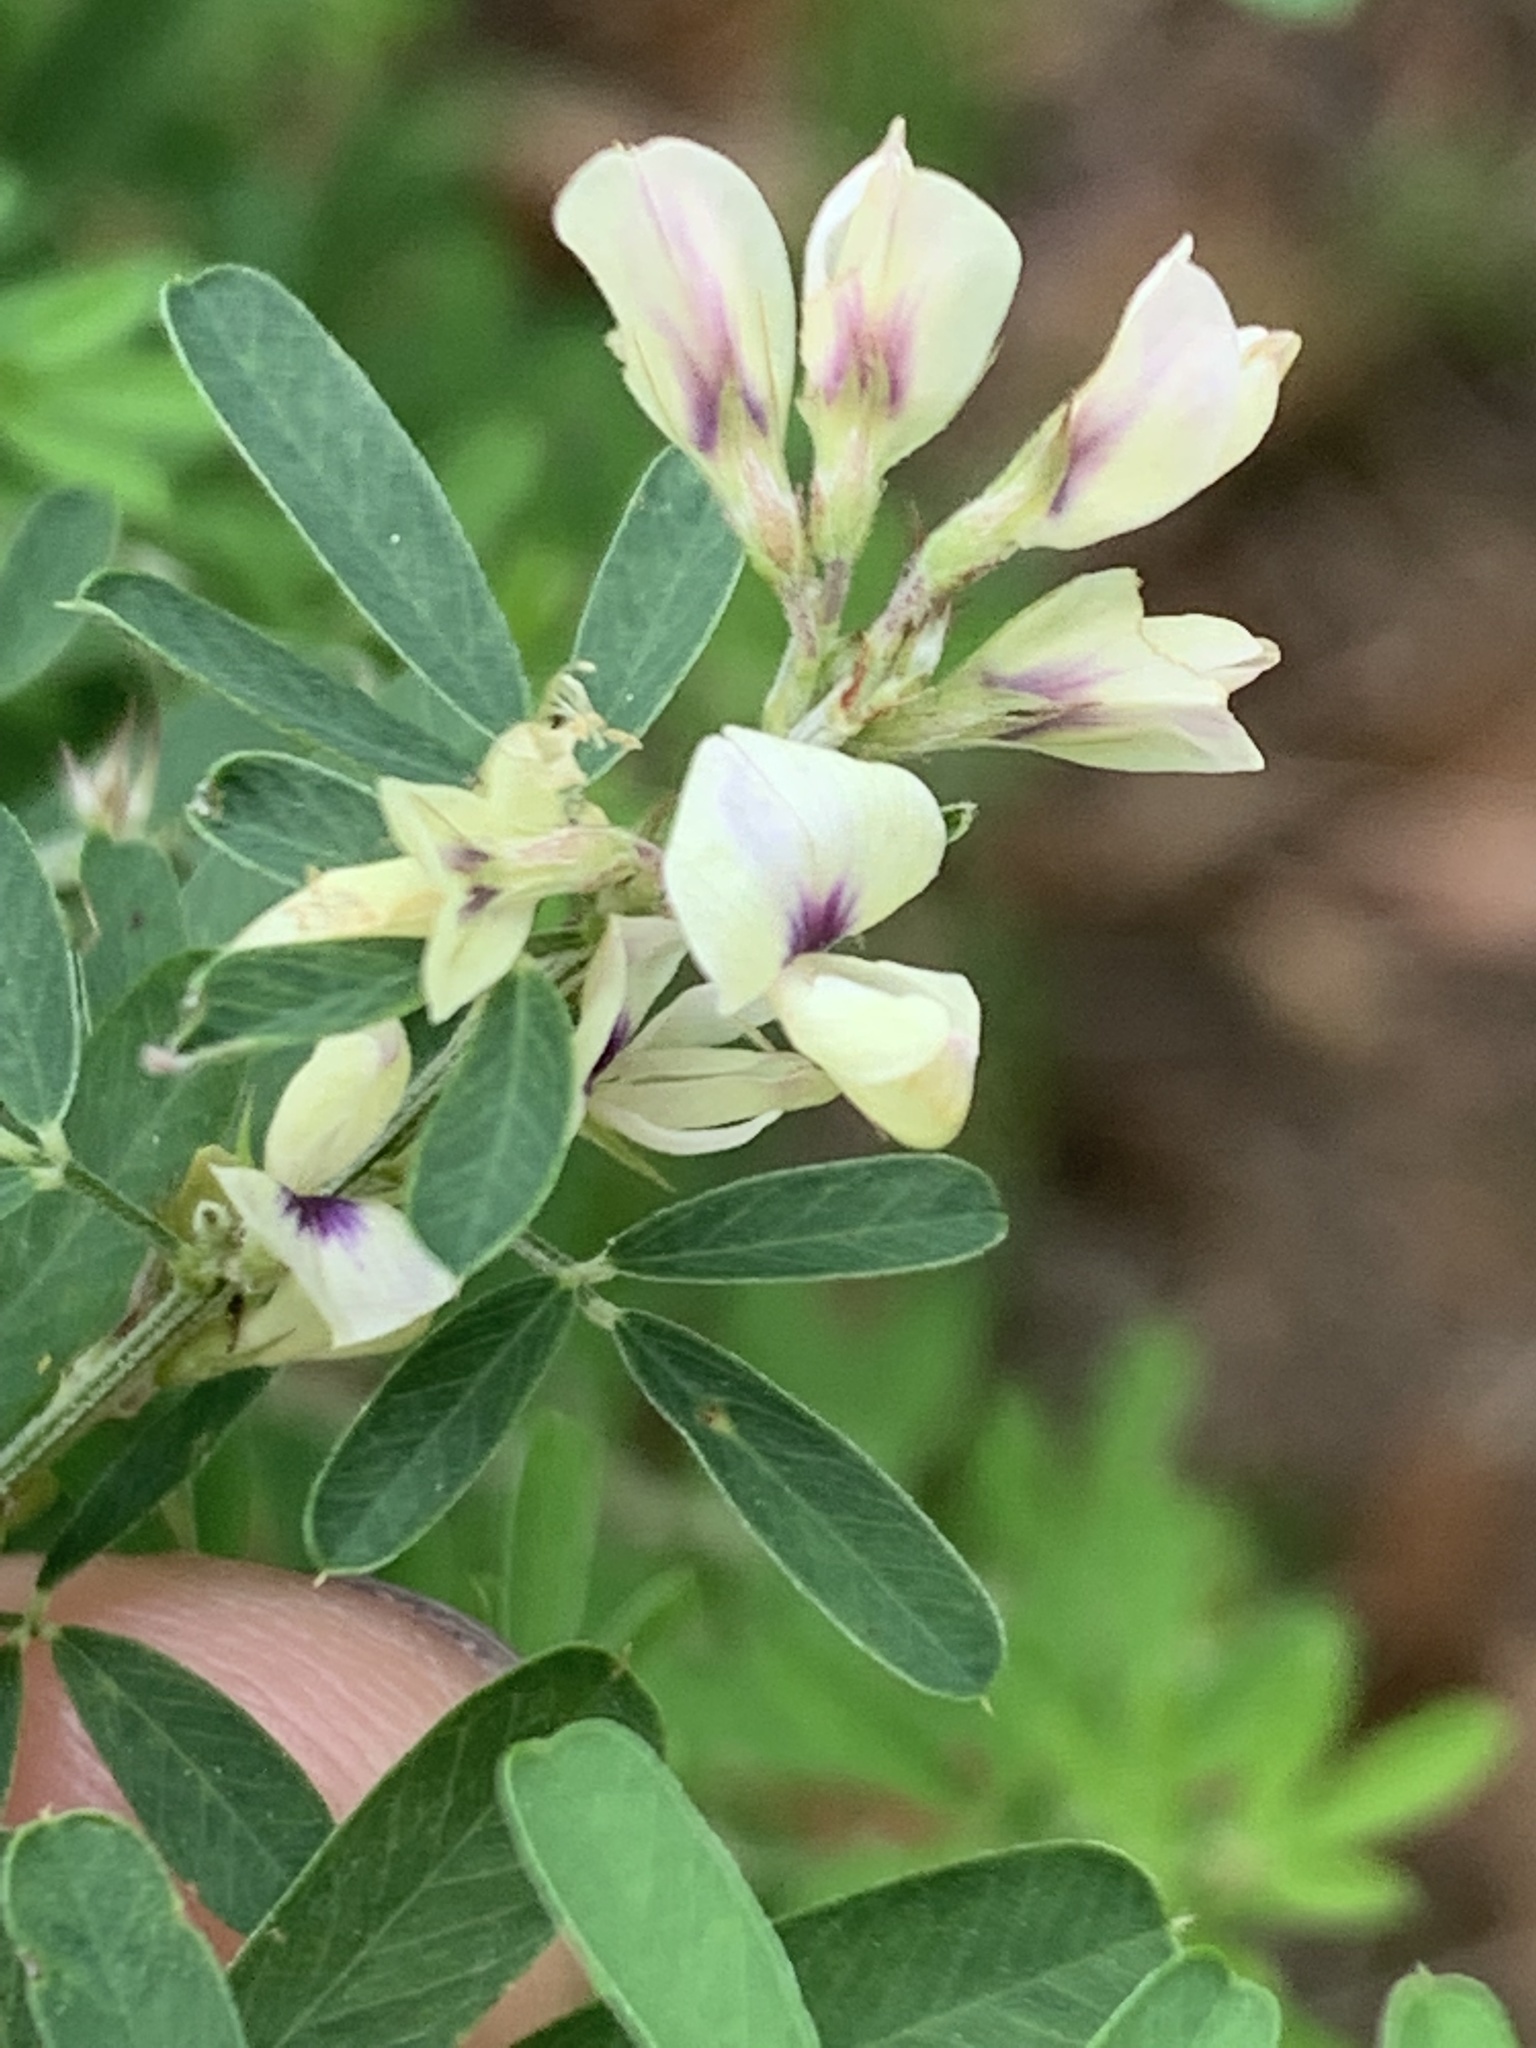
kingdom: Plantae
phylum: Tracheophyta
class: Magnoliopsida
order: Fabales
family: Fabaceae
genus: Lespedeza
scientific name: Lespedeza cuneata
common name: Chinese bush-clover
